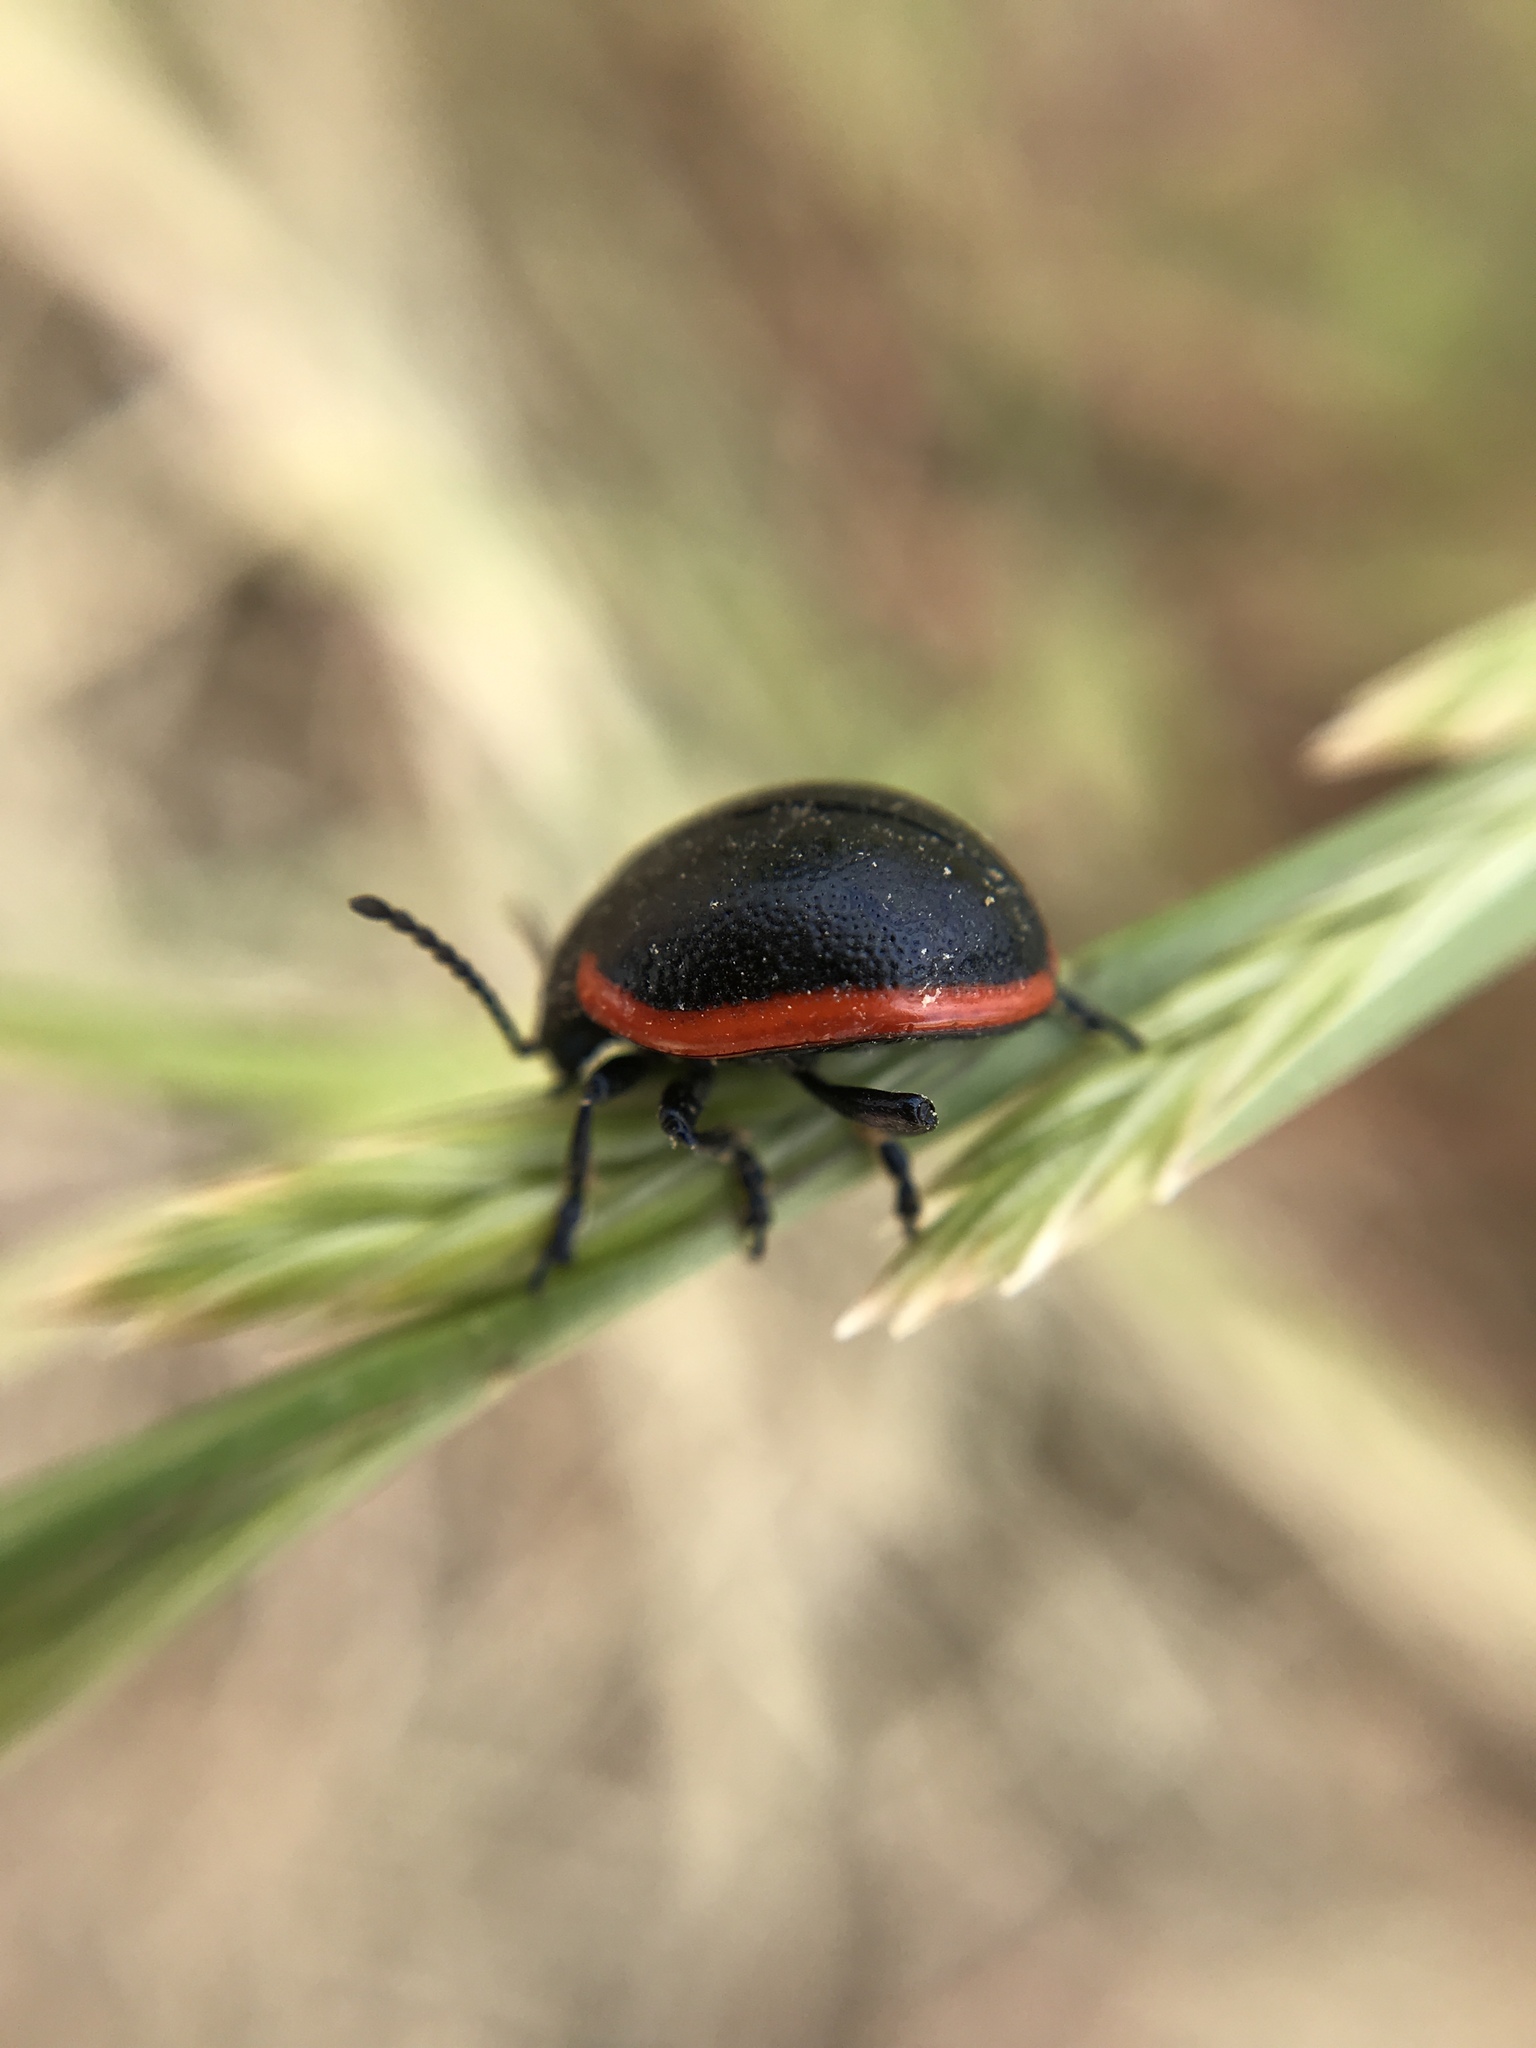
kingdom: Animalia
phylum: Arthropoda
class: Insecta
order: Coleoptera
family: Chrysomelidae
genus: Chrysolina
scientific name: Chrysolina rossia
